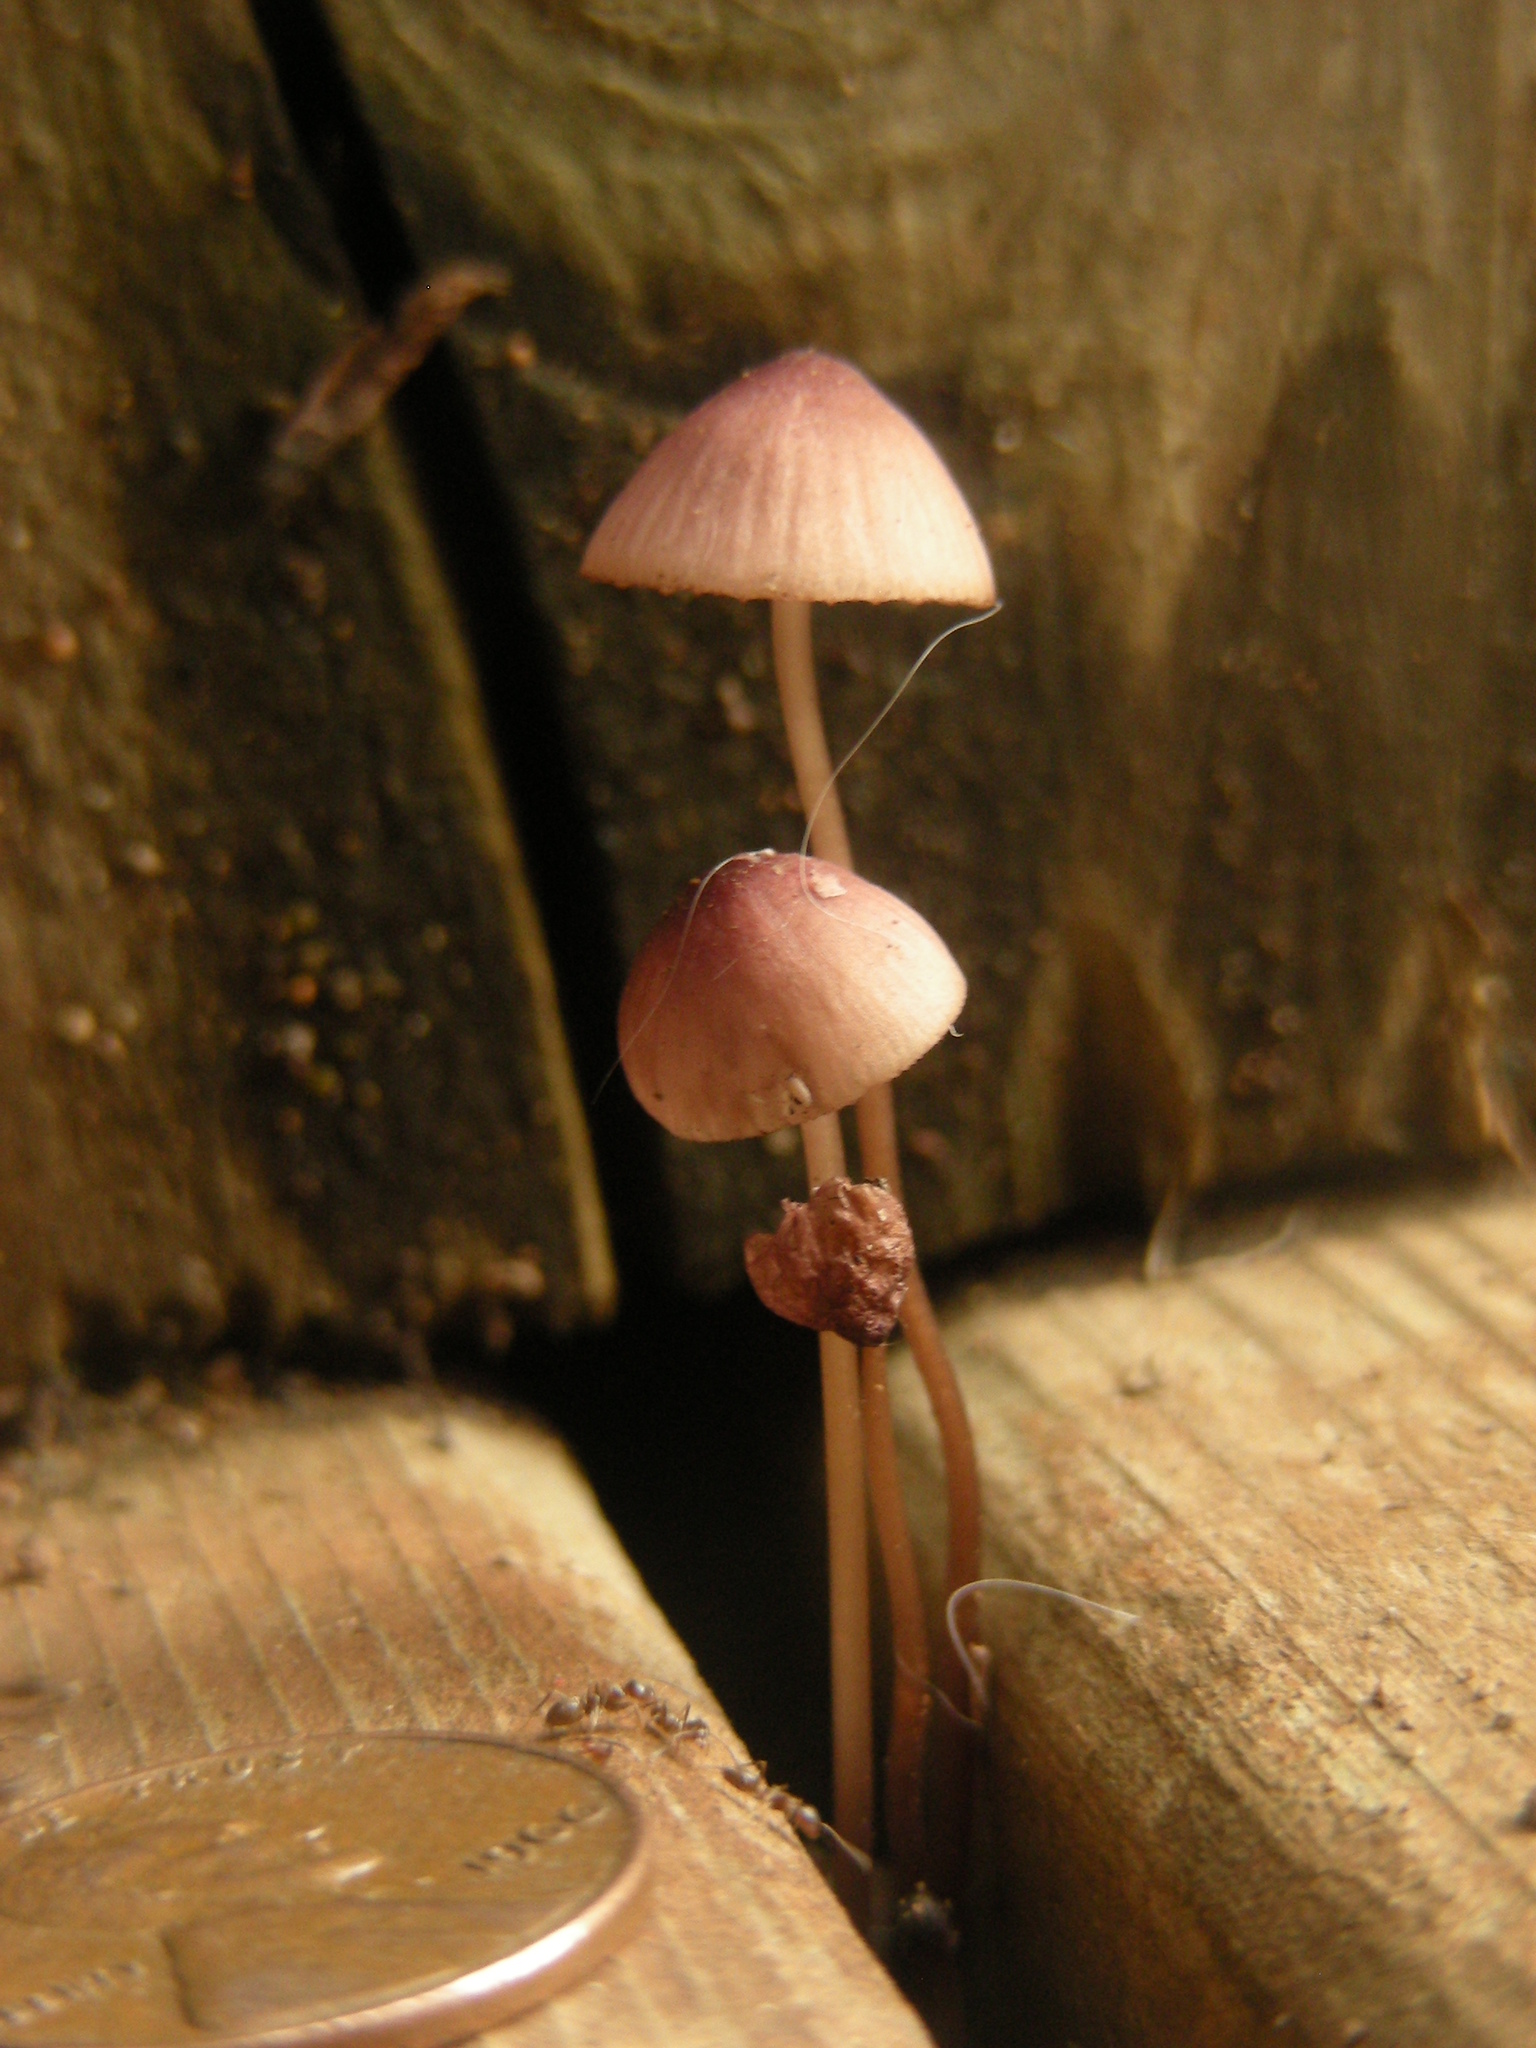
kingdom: Fungi
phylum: Basidiomycota
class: Agaricomycetes
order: Agaricales
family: Mycenaceae
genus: Mycena
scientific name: Mycena purpureofusca
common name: Purple edge bonnet
